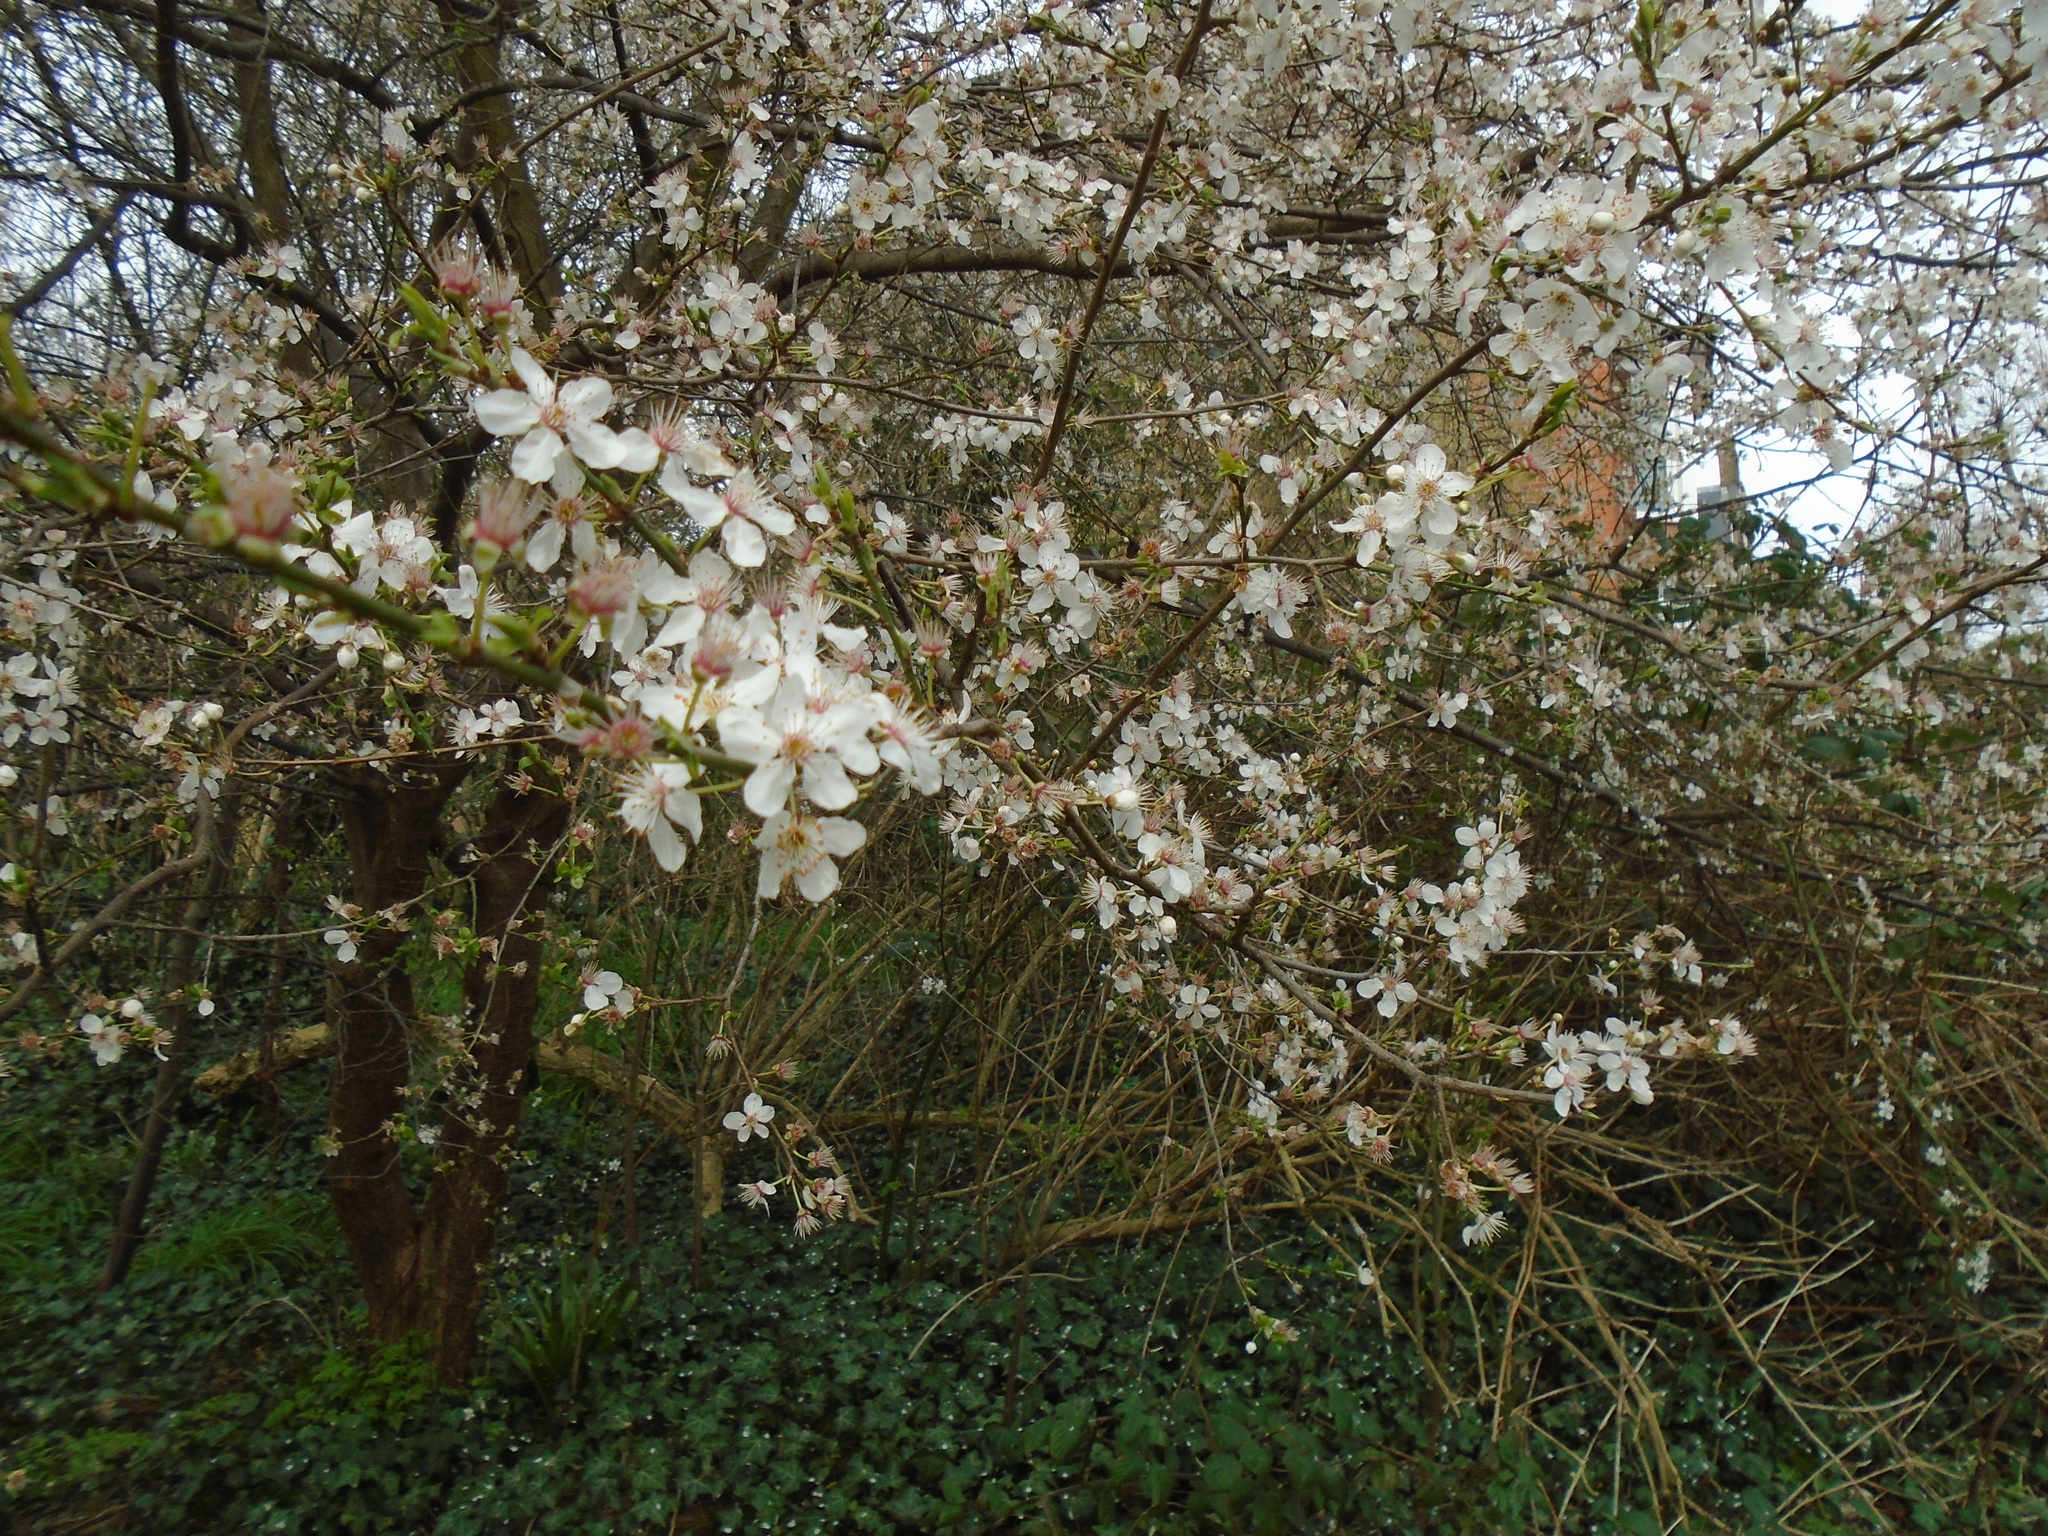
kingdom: Plantae
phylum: Tracheophyta
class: Magnoliopsida
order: Rosales
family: Rosaceae
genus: Prunus
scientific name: Prunus cerasifera
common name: Cherry plum
